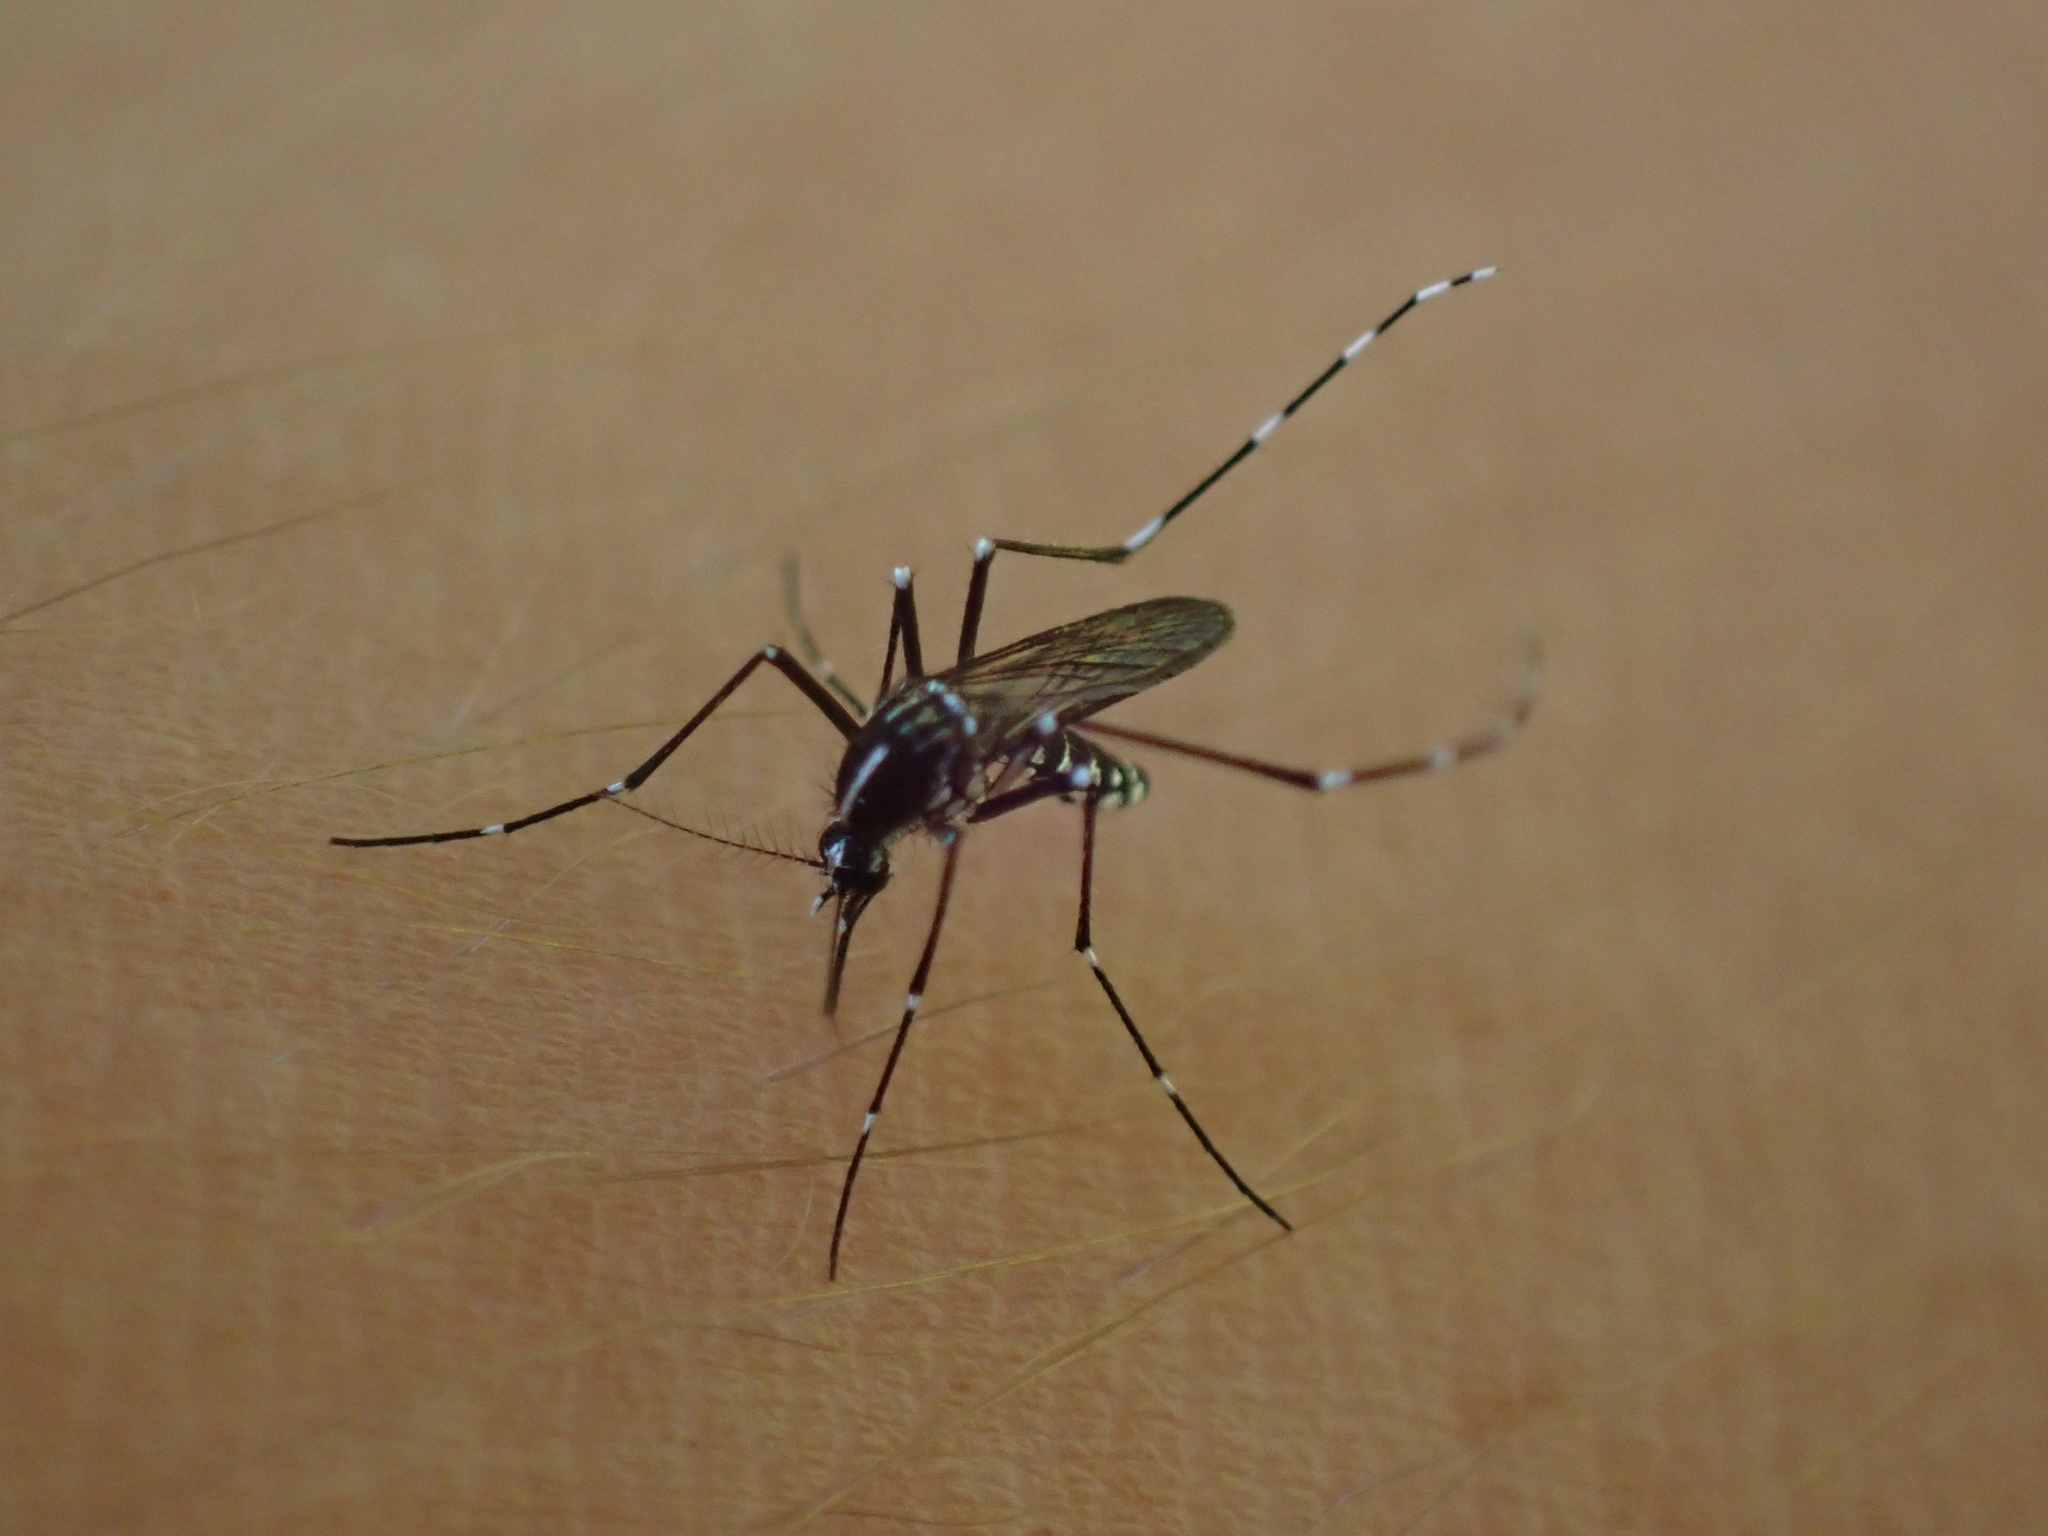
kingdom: Animalia
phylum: Arthropoda
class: Insecta
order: Diptera
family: Culicidae
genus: Aedes
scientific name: Aedes albopictus
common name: Tiger mosquito
